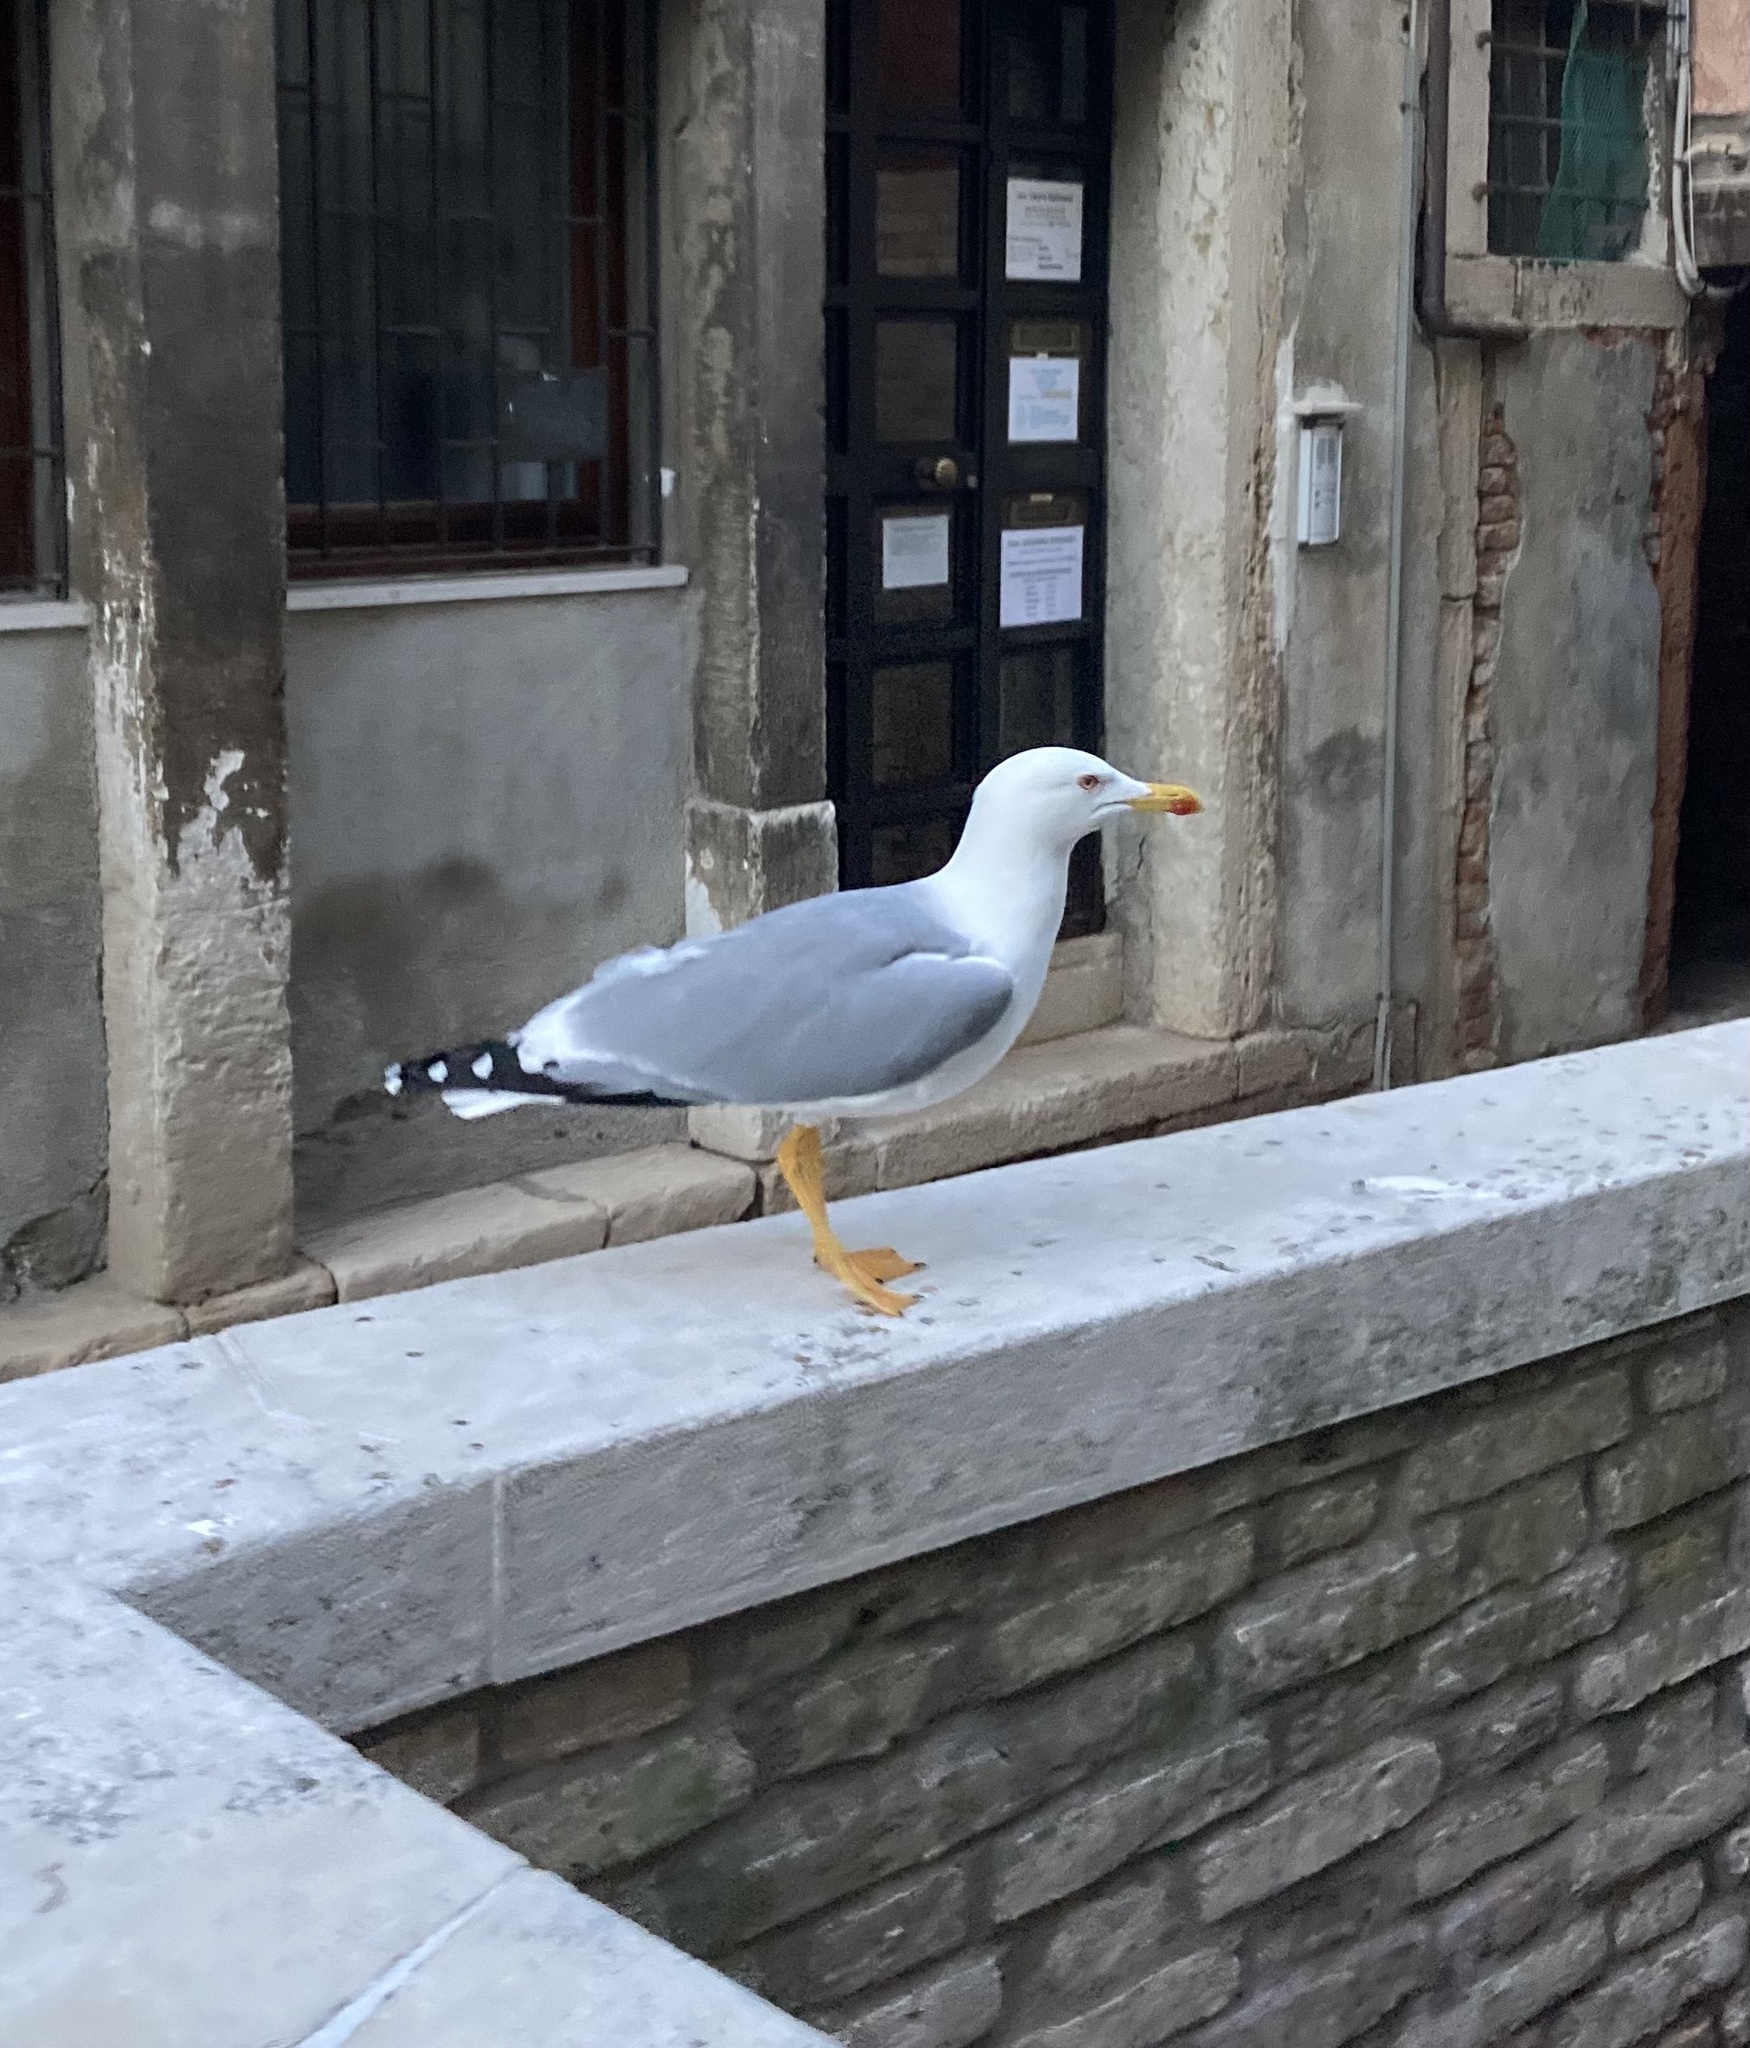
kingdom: Animalia
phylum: Chordata
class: Aves
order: Charadriiformes
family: Laridae
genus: Larus
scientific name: Larus michahellis
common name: Yellow-legged gull
